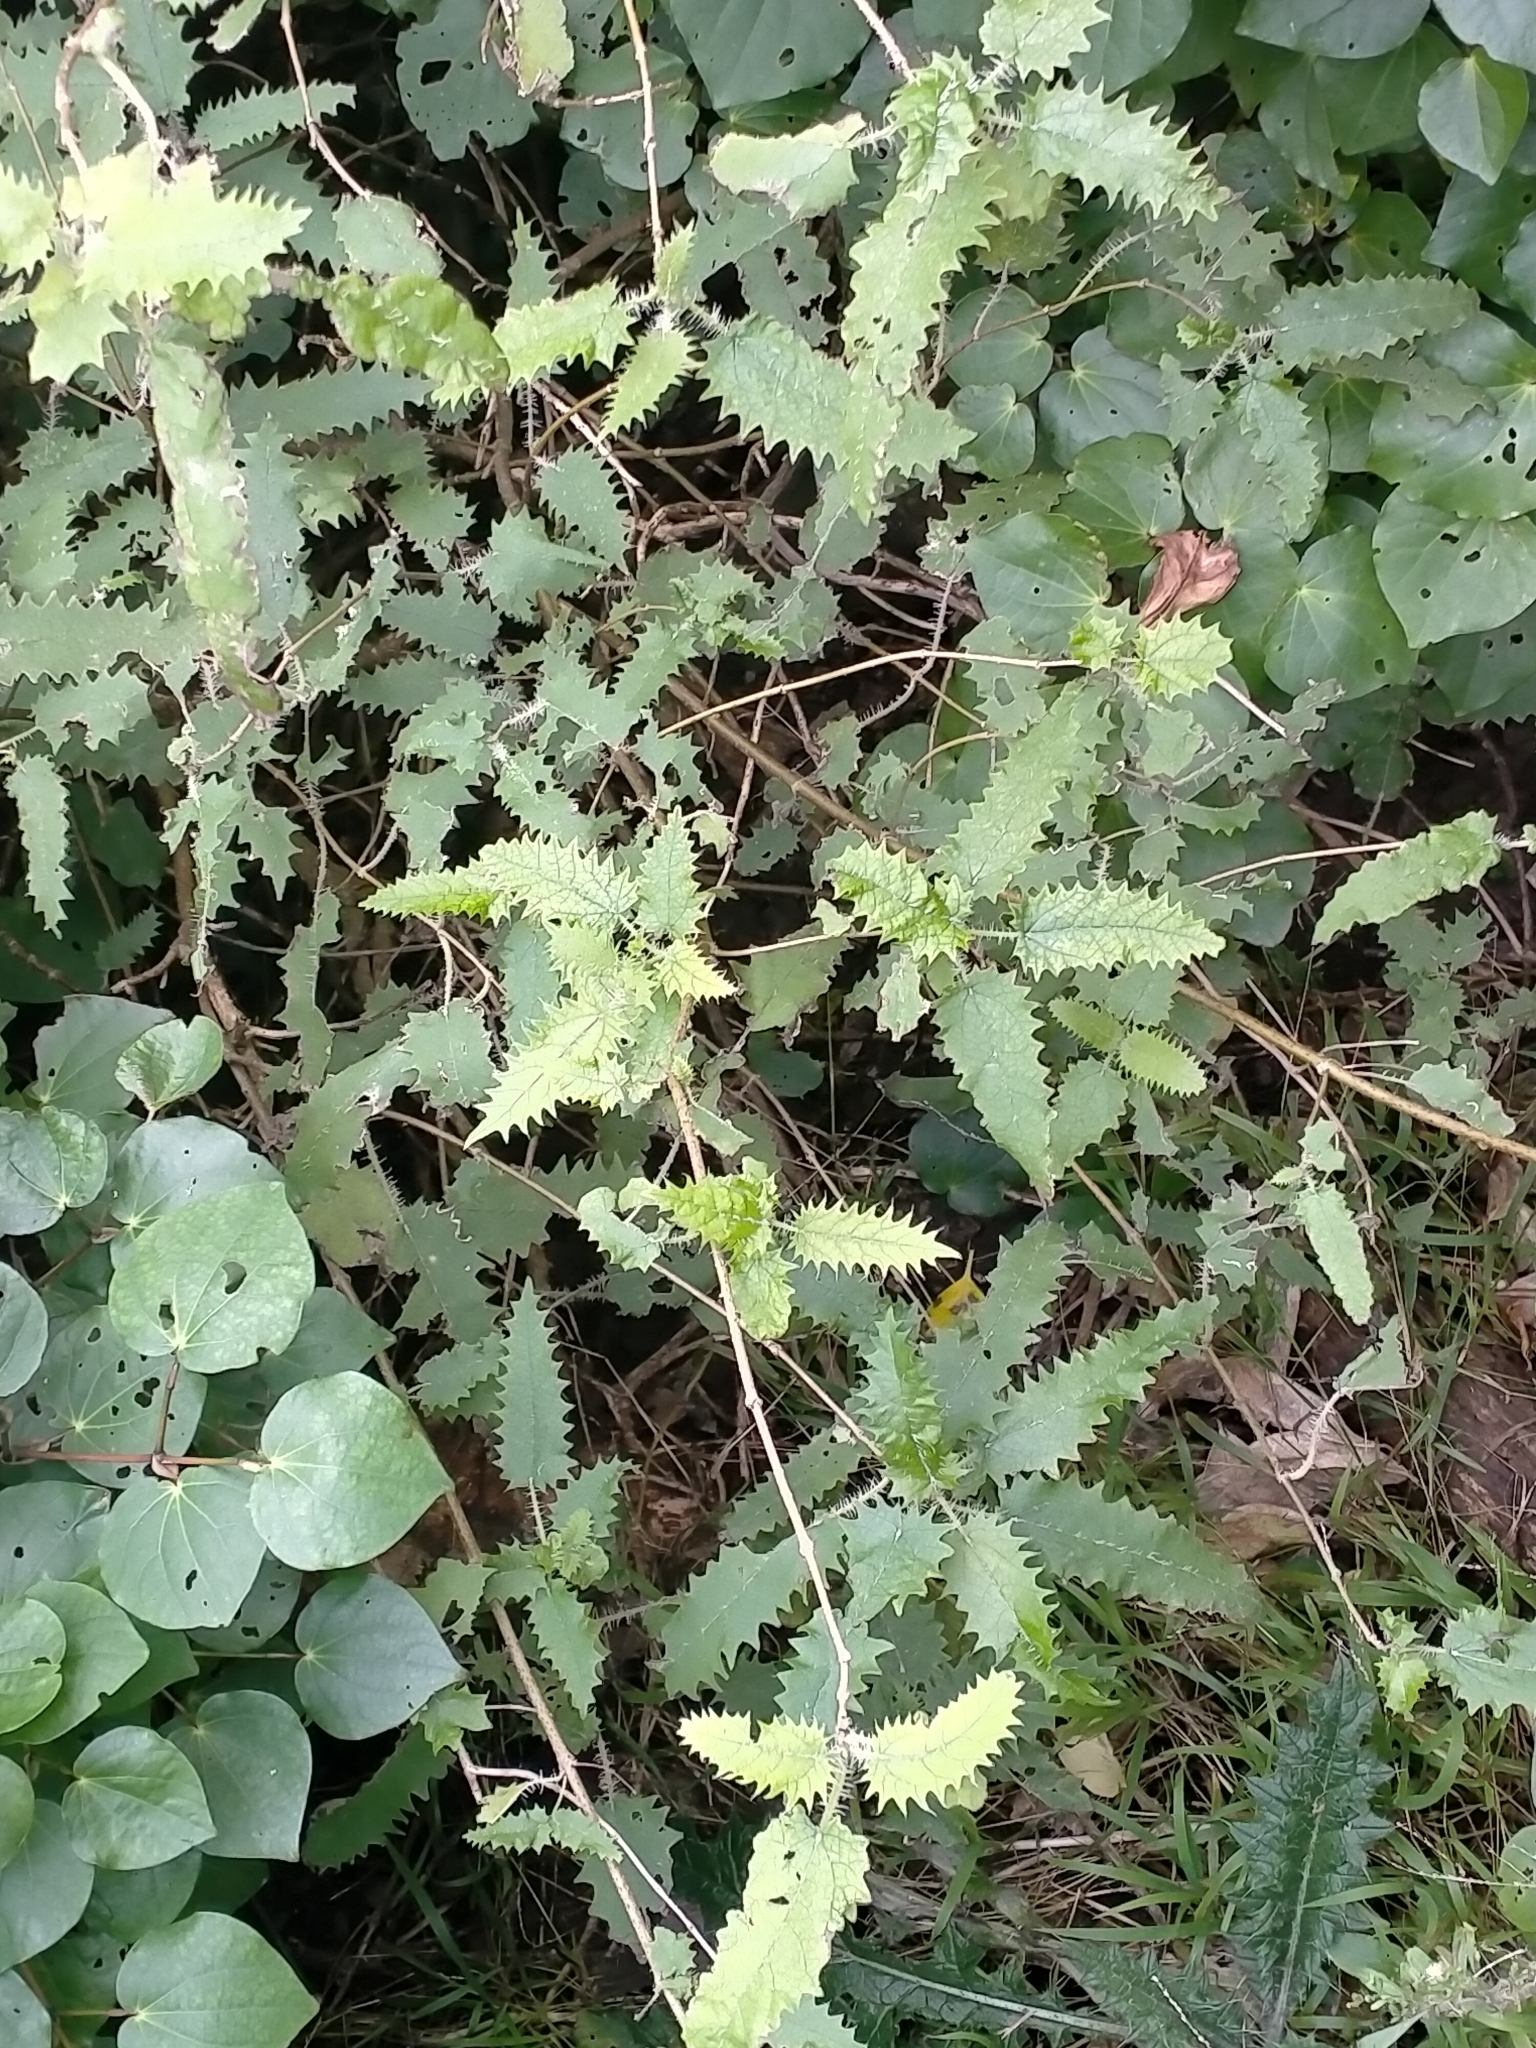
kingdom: Plantae
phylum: Tracheophyta
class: Magnoliopsida
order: Rosales
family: Urticaceae
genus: Urtica
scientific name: Urtica ferox
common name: Tree nettle
